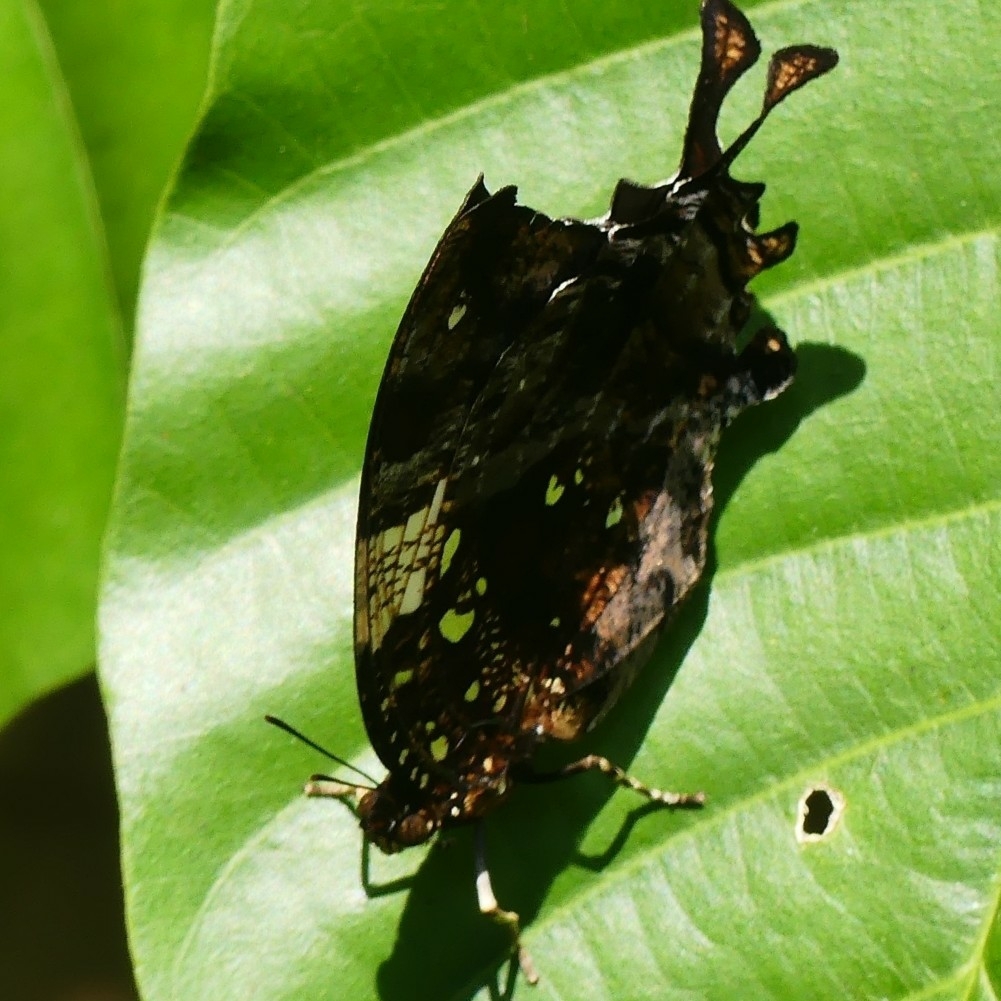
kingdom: Animalia
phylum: Arthropoda
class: Insecta
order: Lepidoptera
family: Nymphalidae
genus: Hypna
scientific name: Hypna clytemnestra
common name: Silver-studded leafwing
